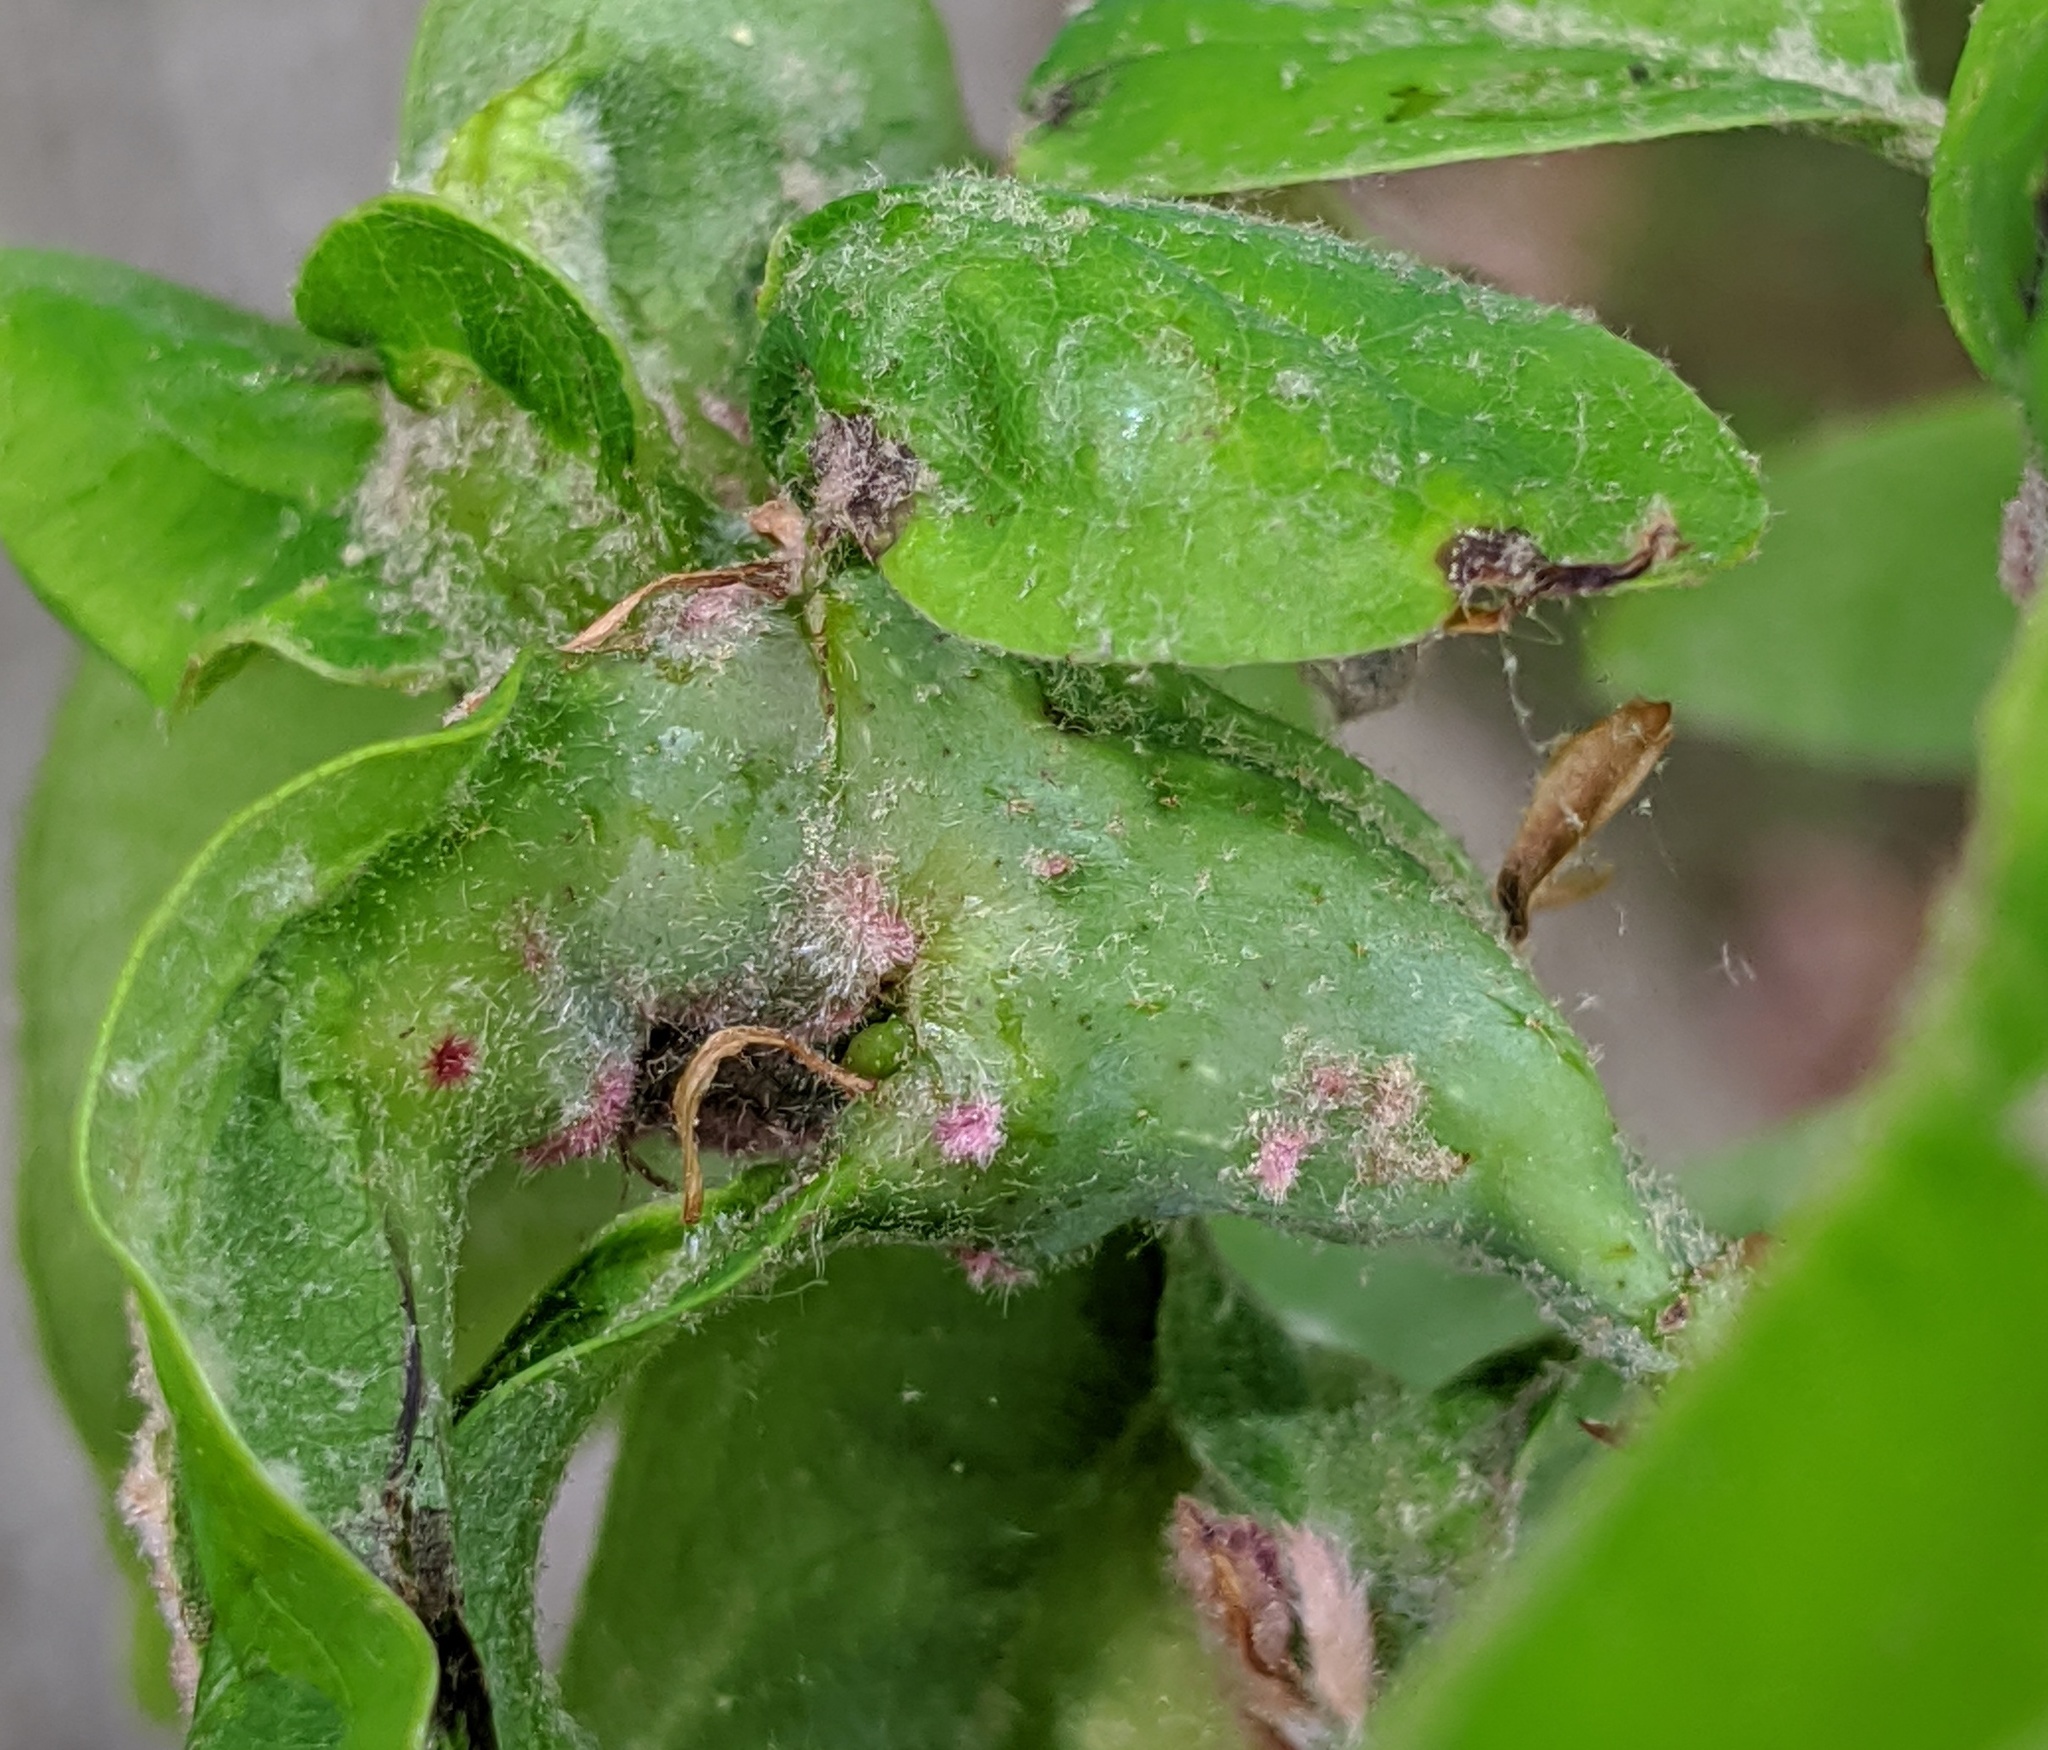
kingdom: Animalia
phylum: Arthropoda
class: Insecta
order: Hymenoptera
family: Cynipidae
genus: Neuroterus
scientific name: Neuroterus quercusbaccarum
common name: Common spangle gall
